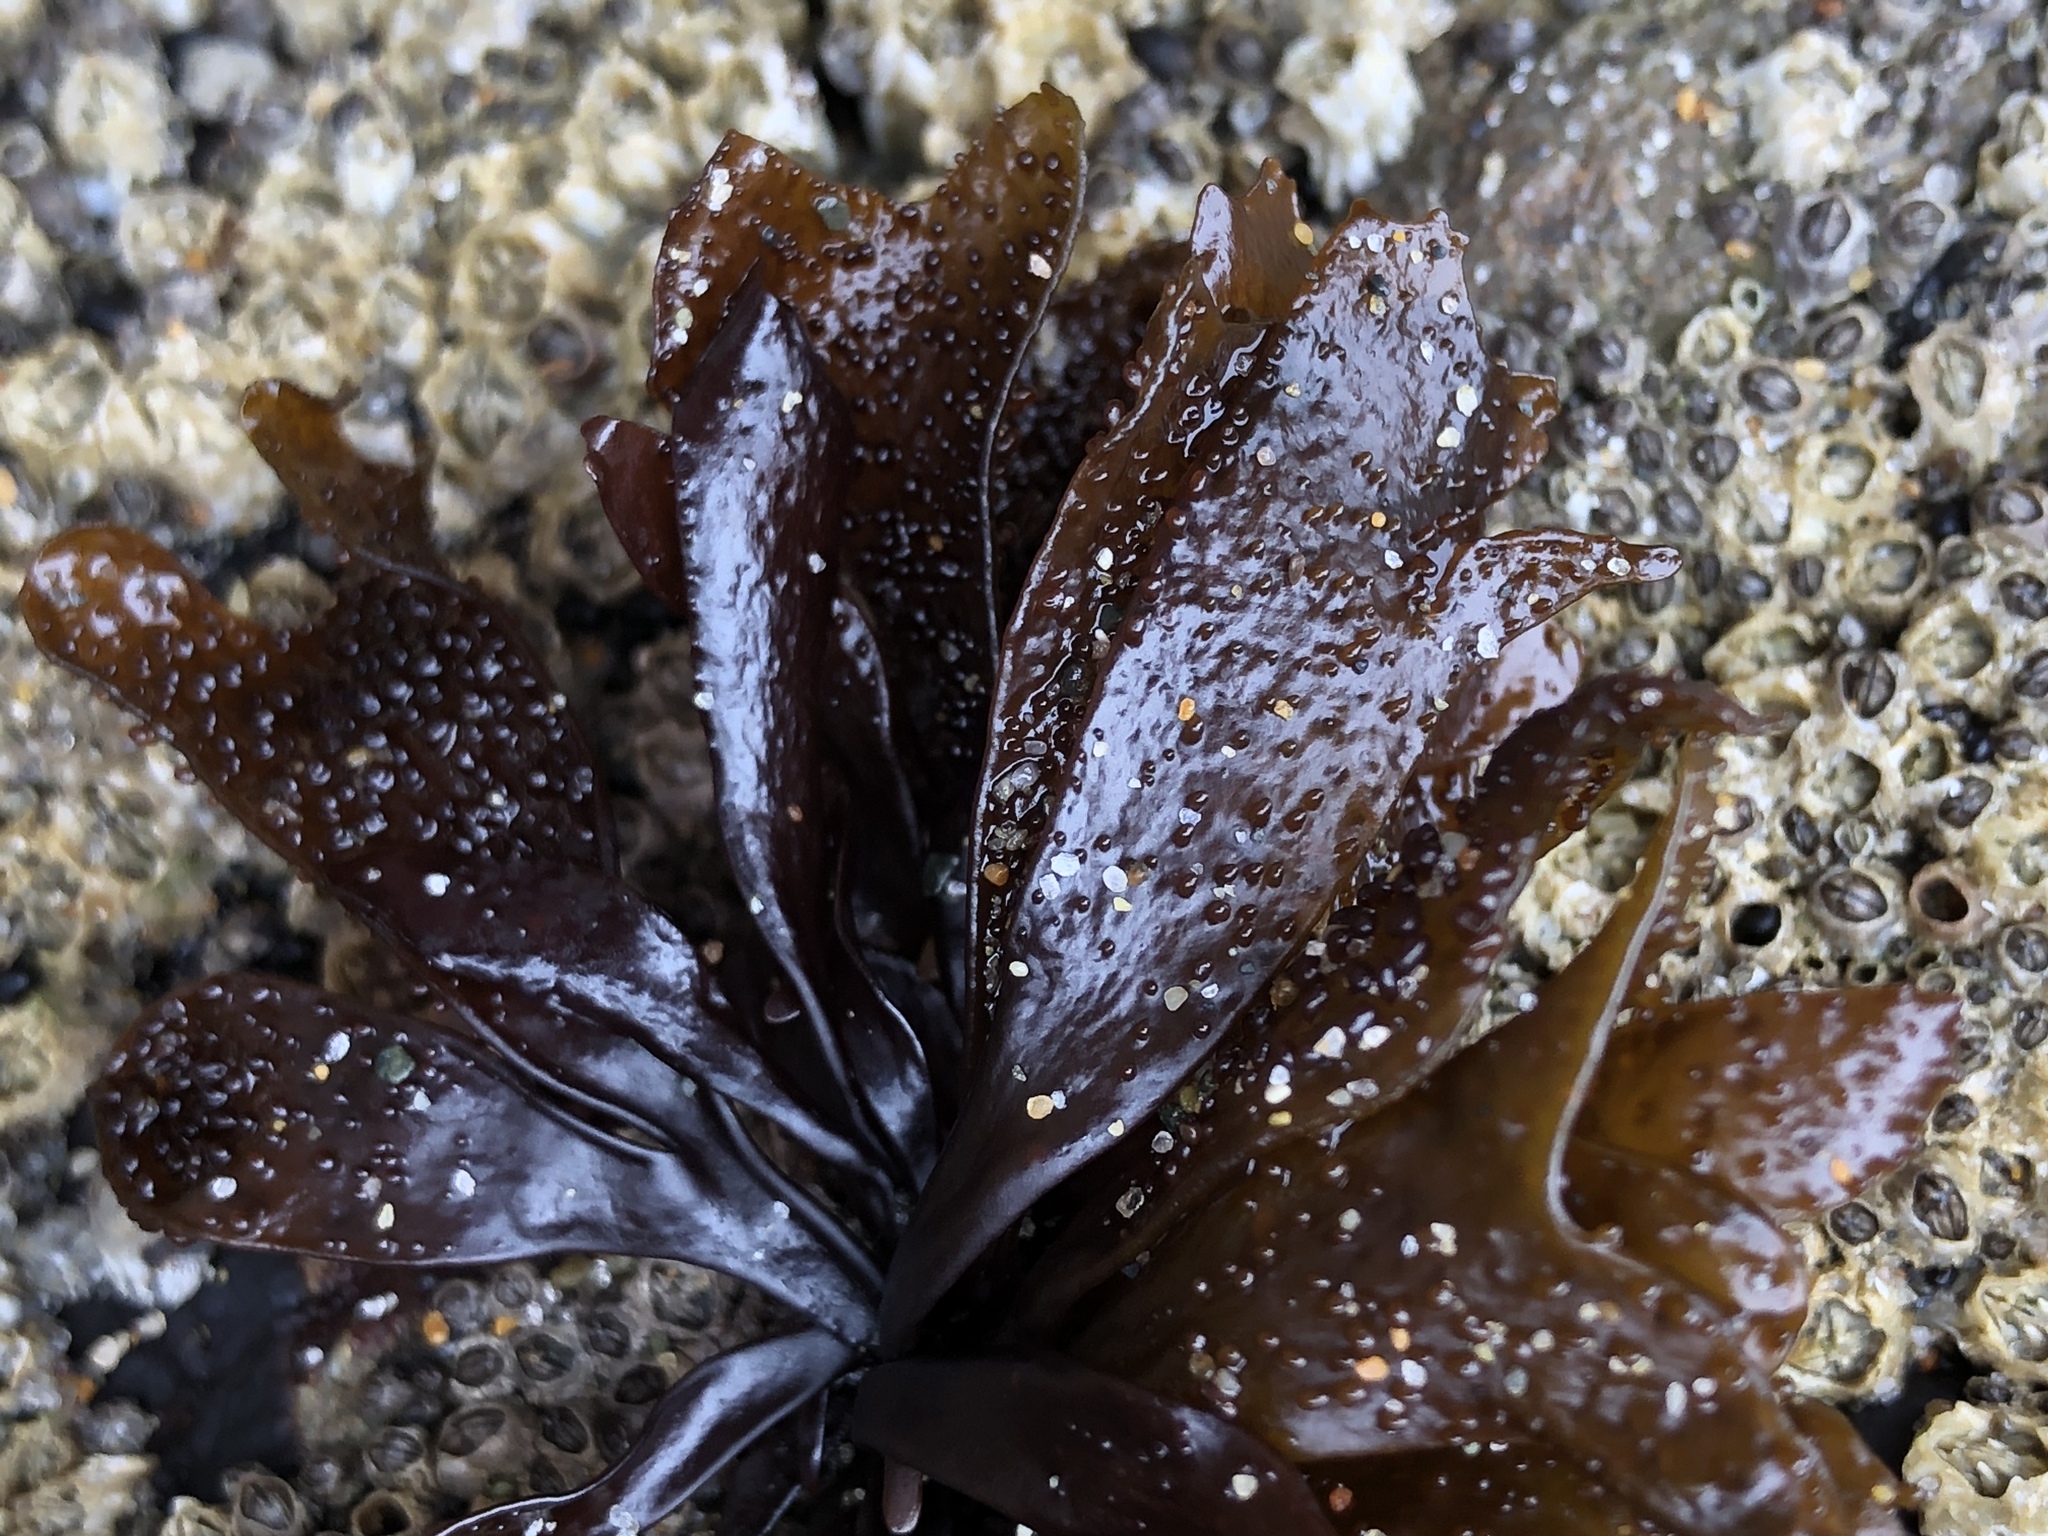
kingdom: Plantae
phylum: Rhodophyta
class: Florideophyceae
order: Gigartinales
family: Phyllophoraceae
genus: Mastocarpus
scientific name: Mastocarpus papillatus
